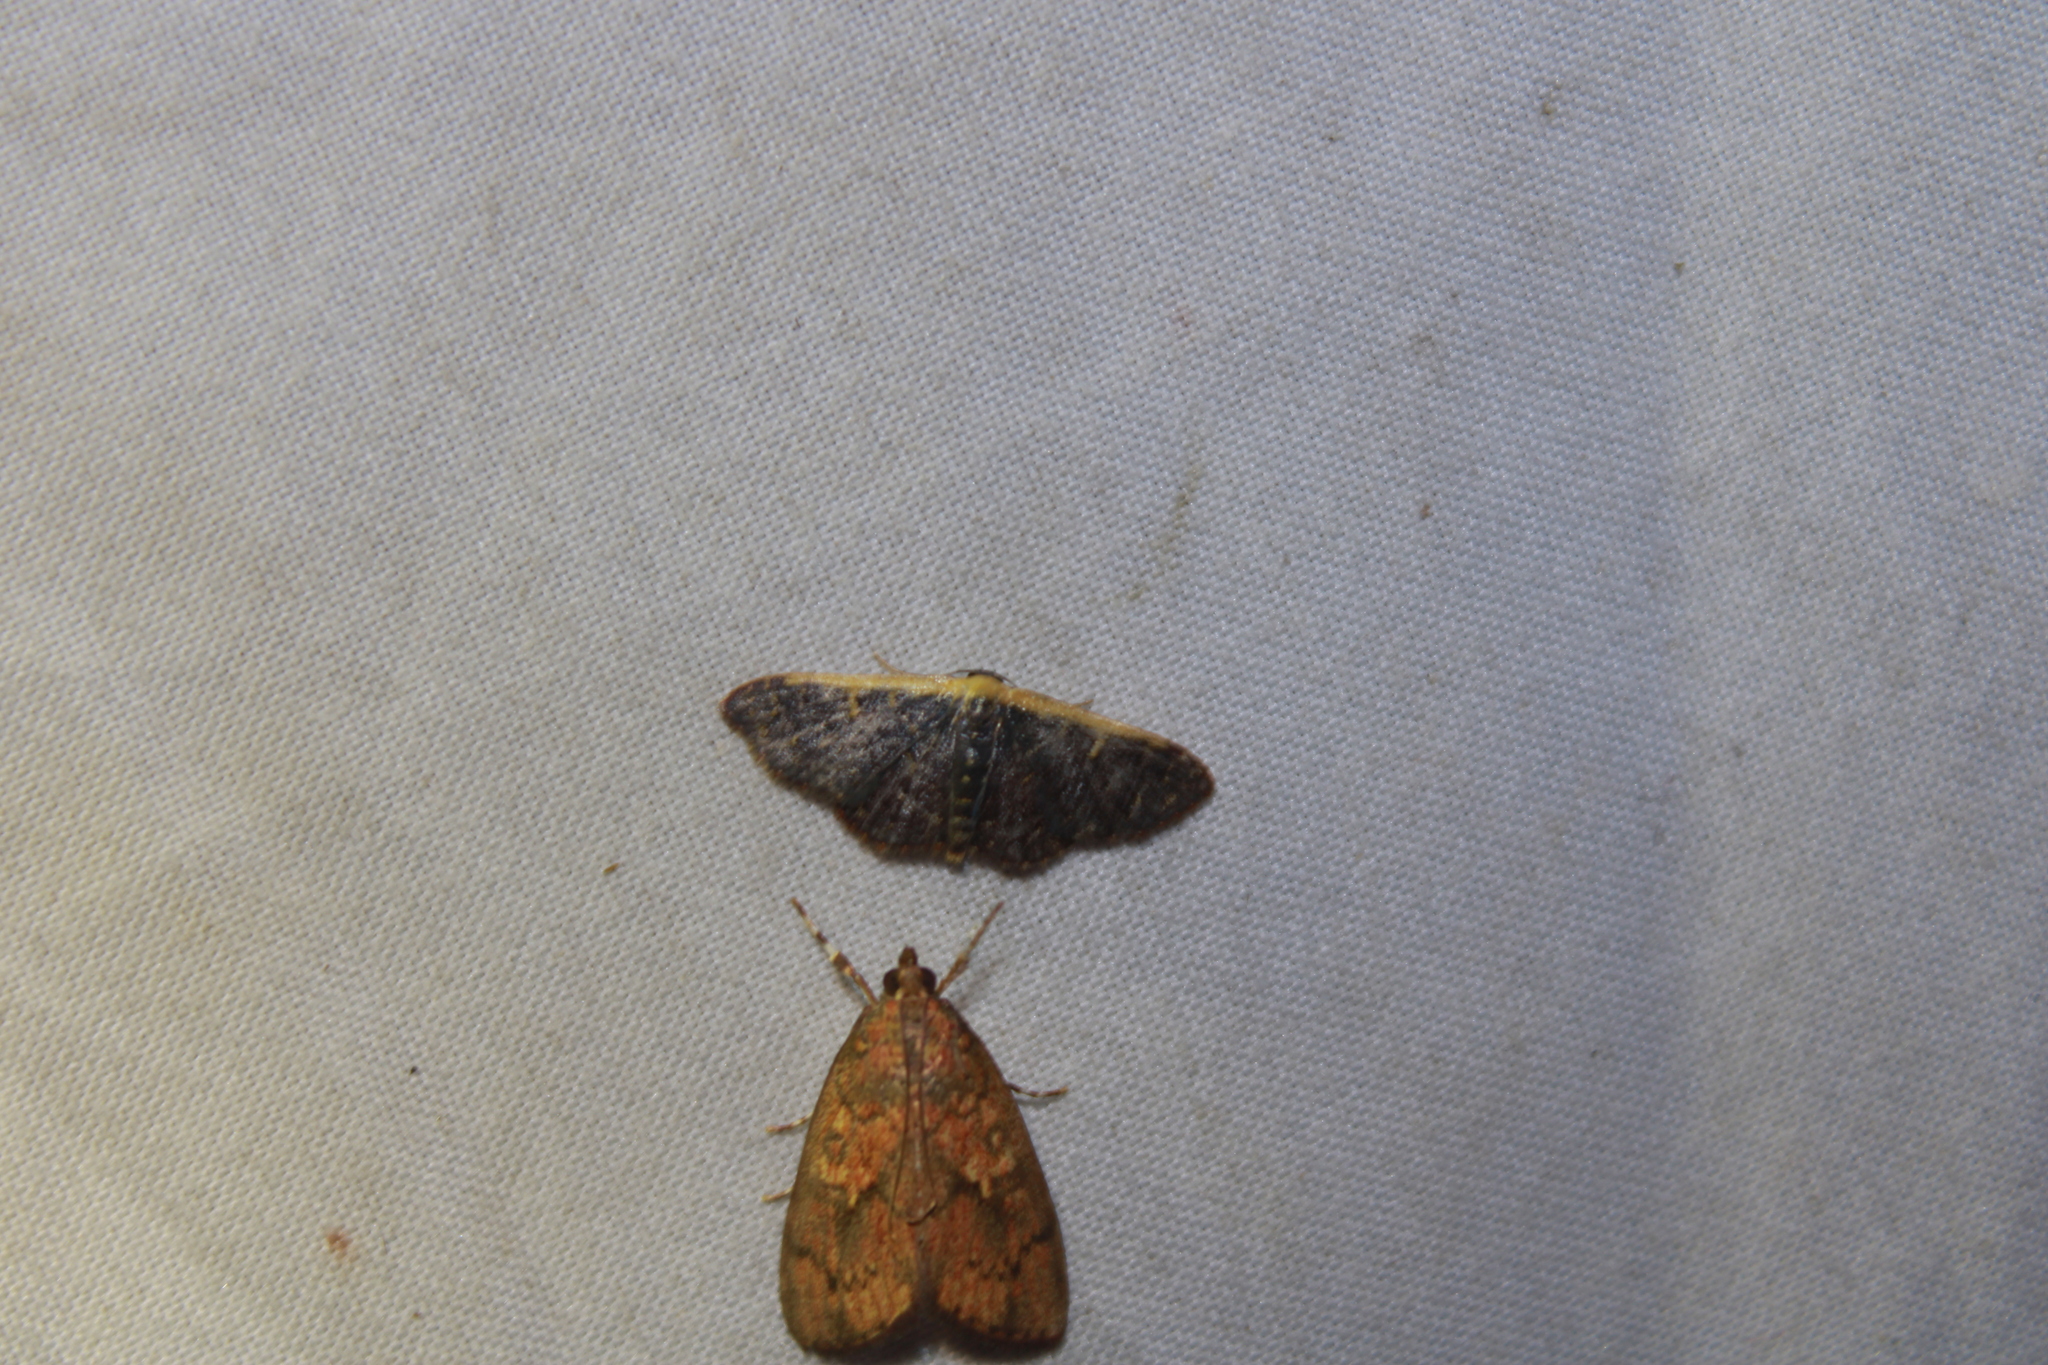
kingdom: Animalia
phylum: Arthropoda
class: Insecta
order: Lepidoptera
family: Geometridae
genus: Leptostales
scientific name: Leptostales crossii
